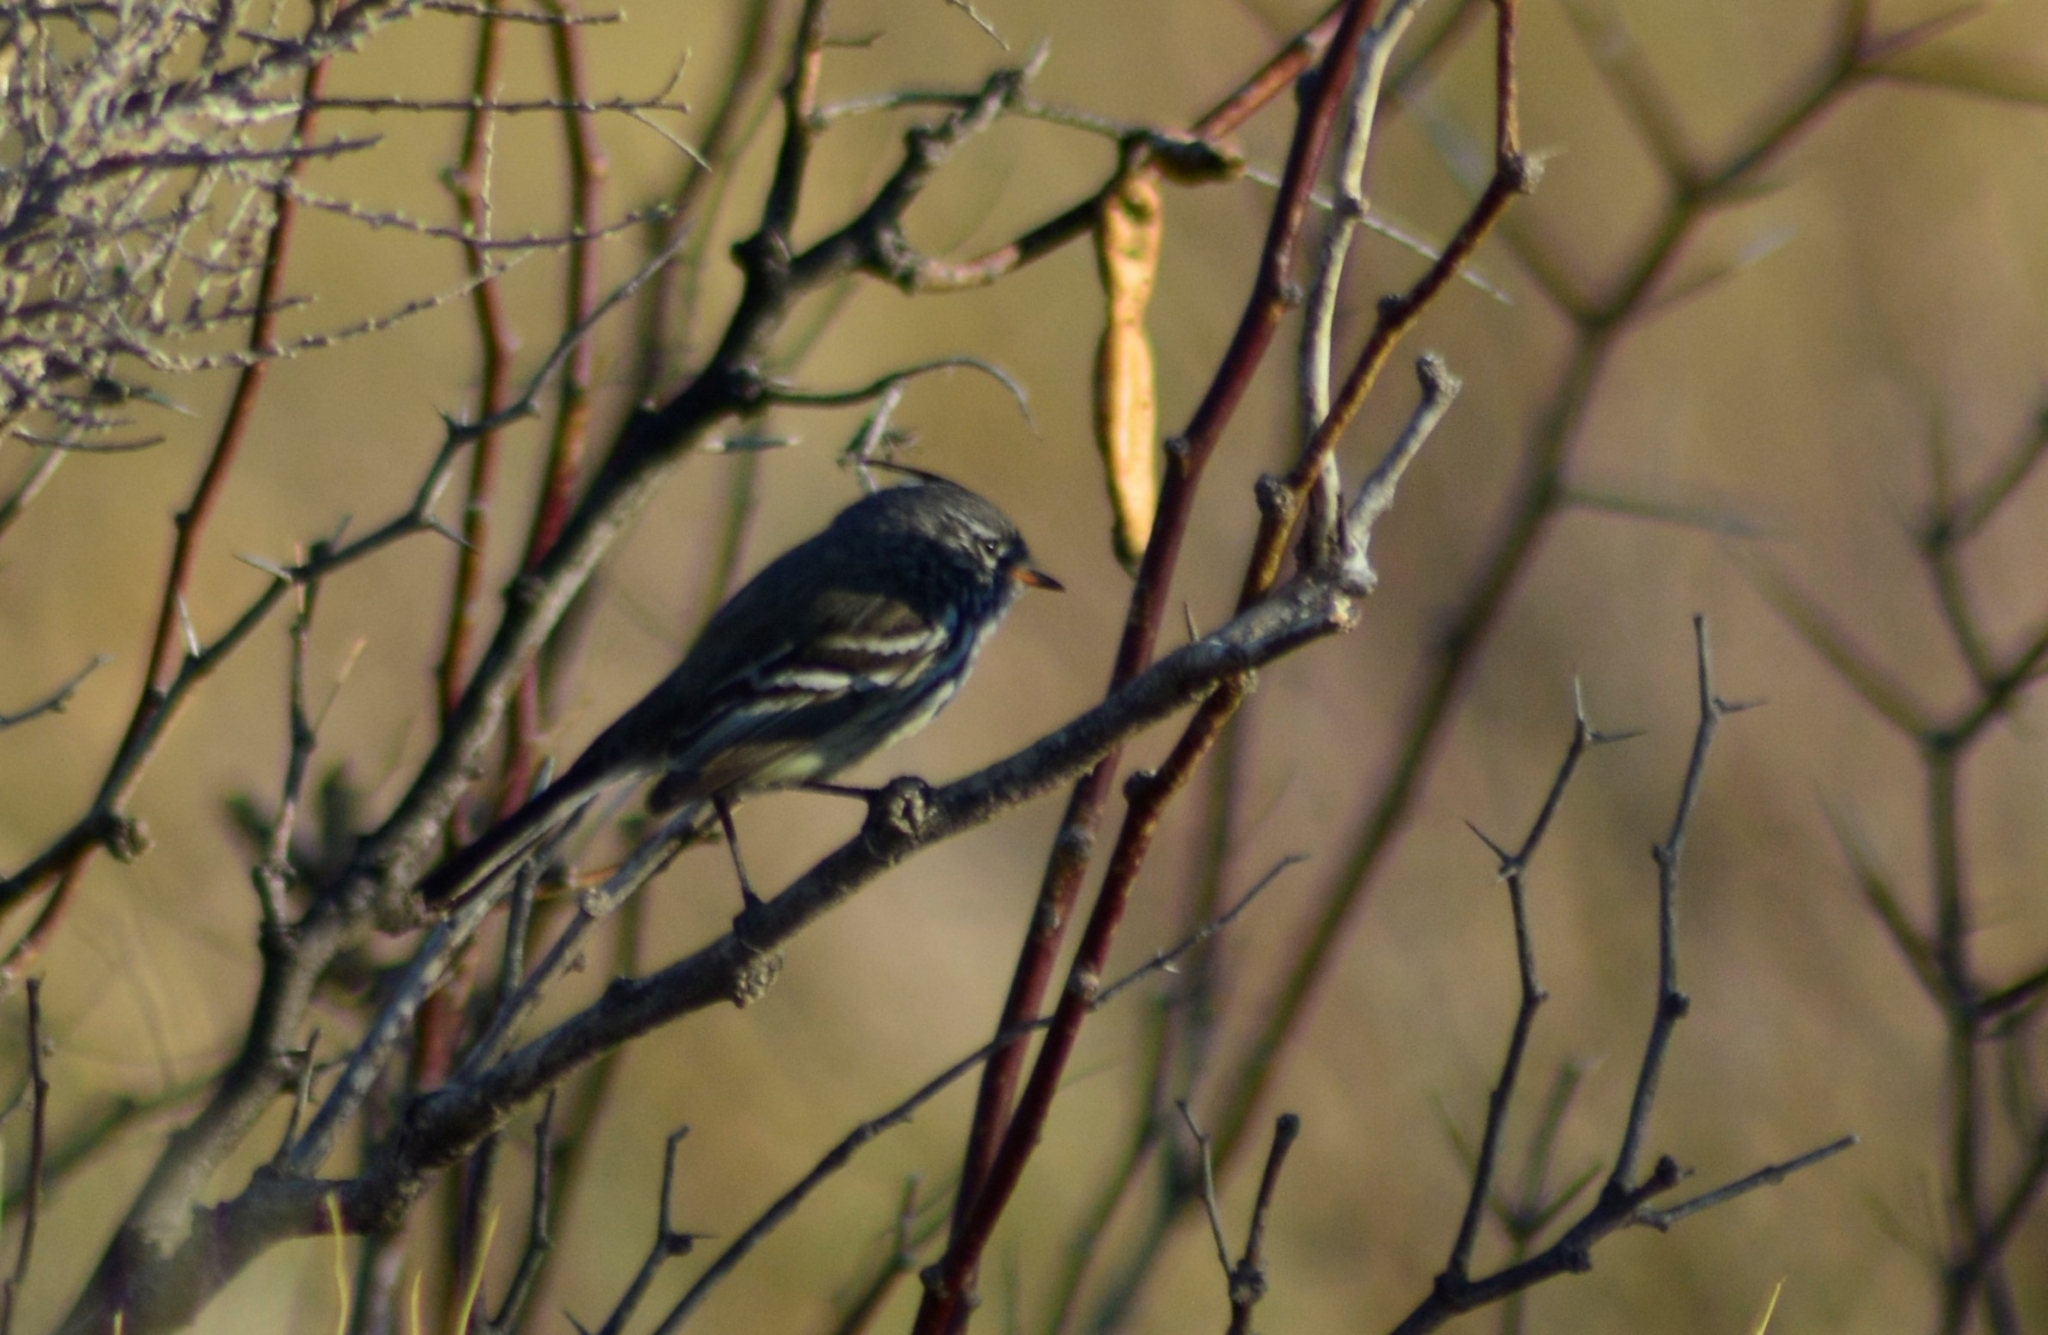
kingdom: Animalia
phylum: Chordata
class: Aves
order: Passeriformes
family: Tyrannidae
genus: Anairetes
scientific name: Anairetes flavirostris
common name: Yellow-billed tit-tyrant
